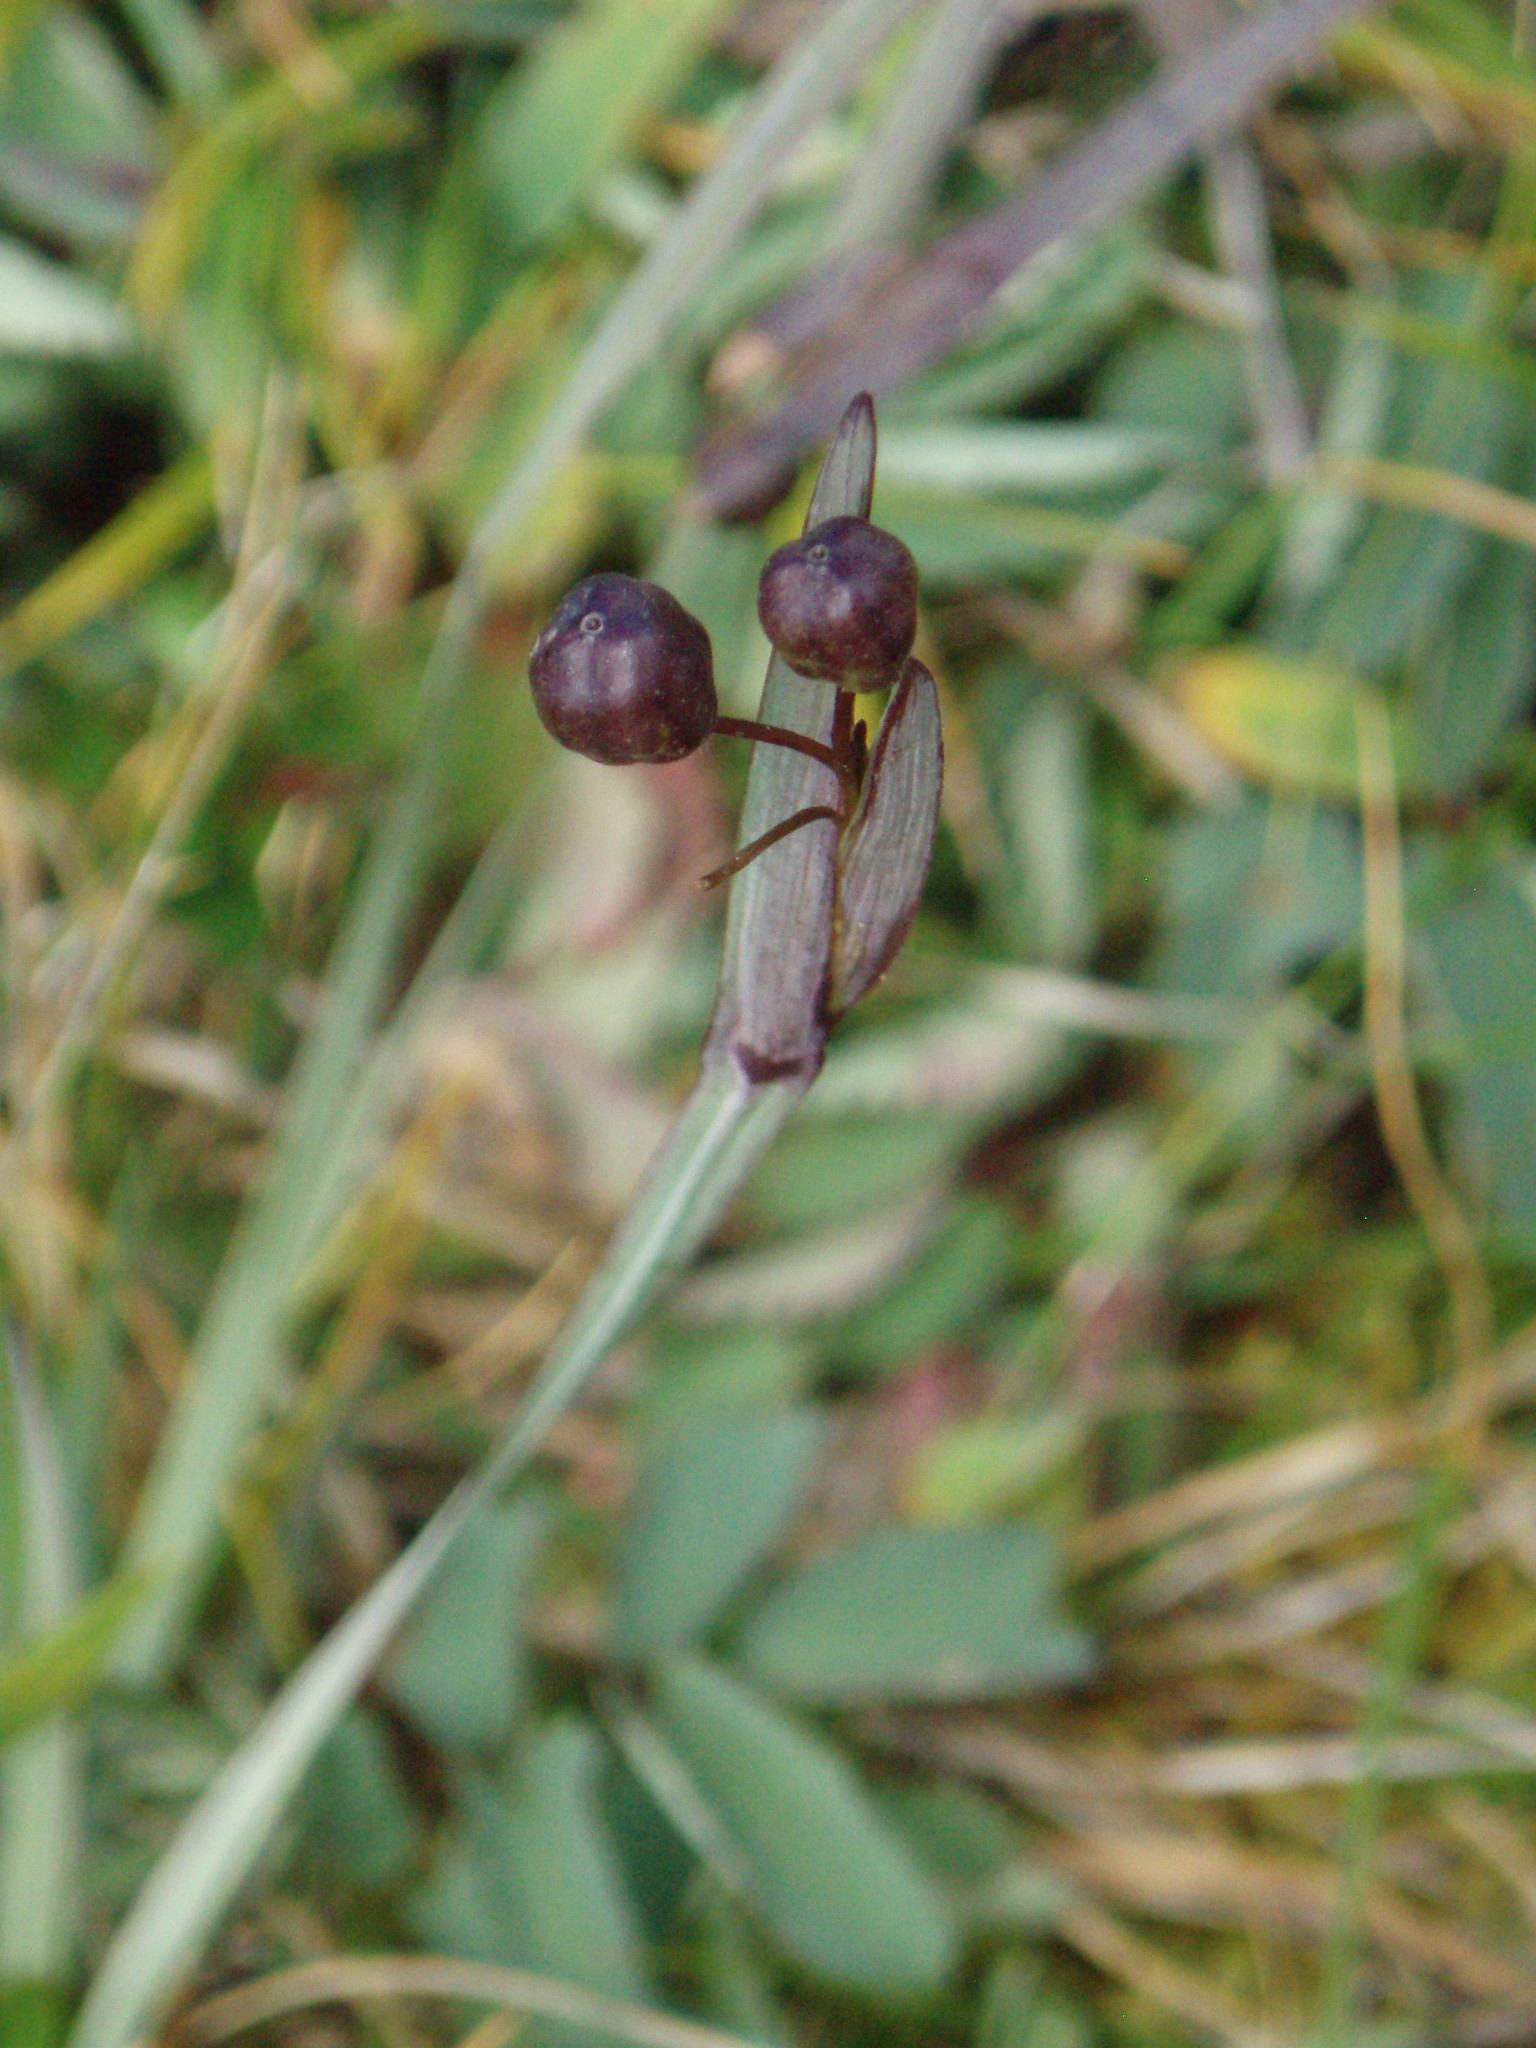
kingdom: Plantae
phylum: Tracheophyta
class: Liliopsida
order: Asparagales
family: Iridaceae
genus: Sisyrinchium
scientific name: Sisyrinchium idahoense
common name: Idaho blue-eyed-grass
